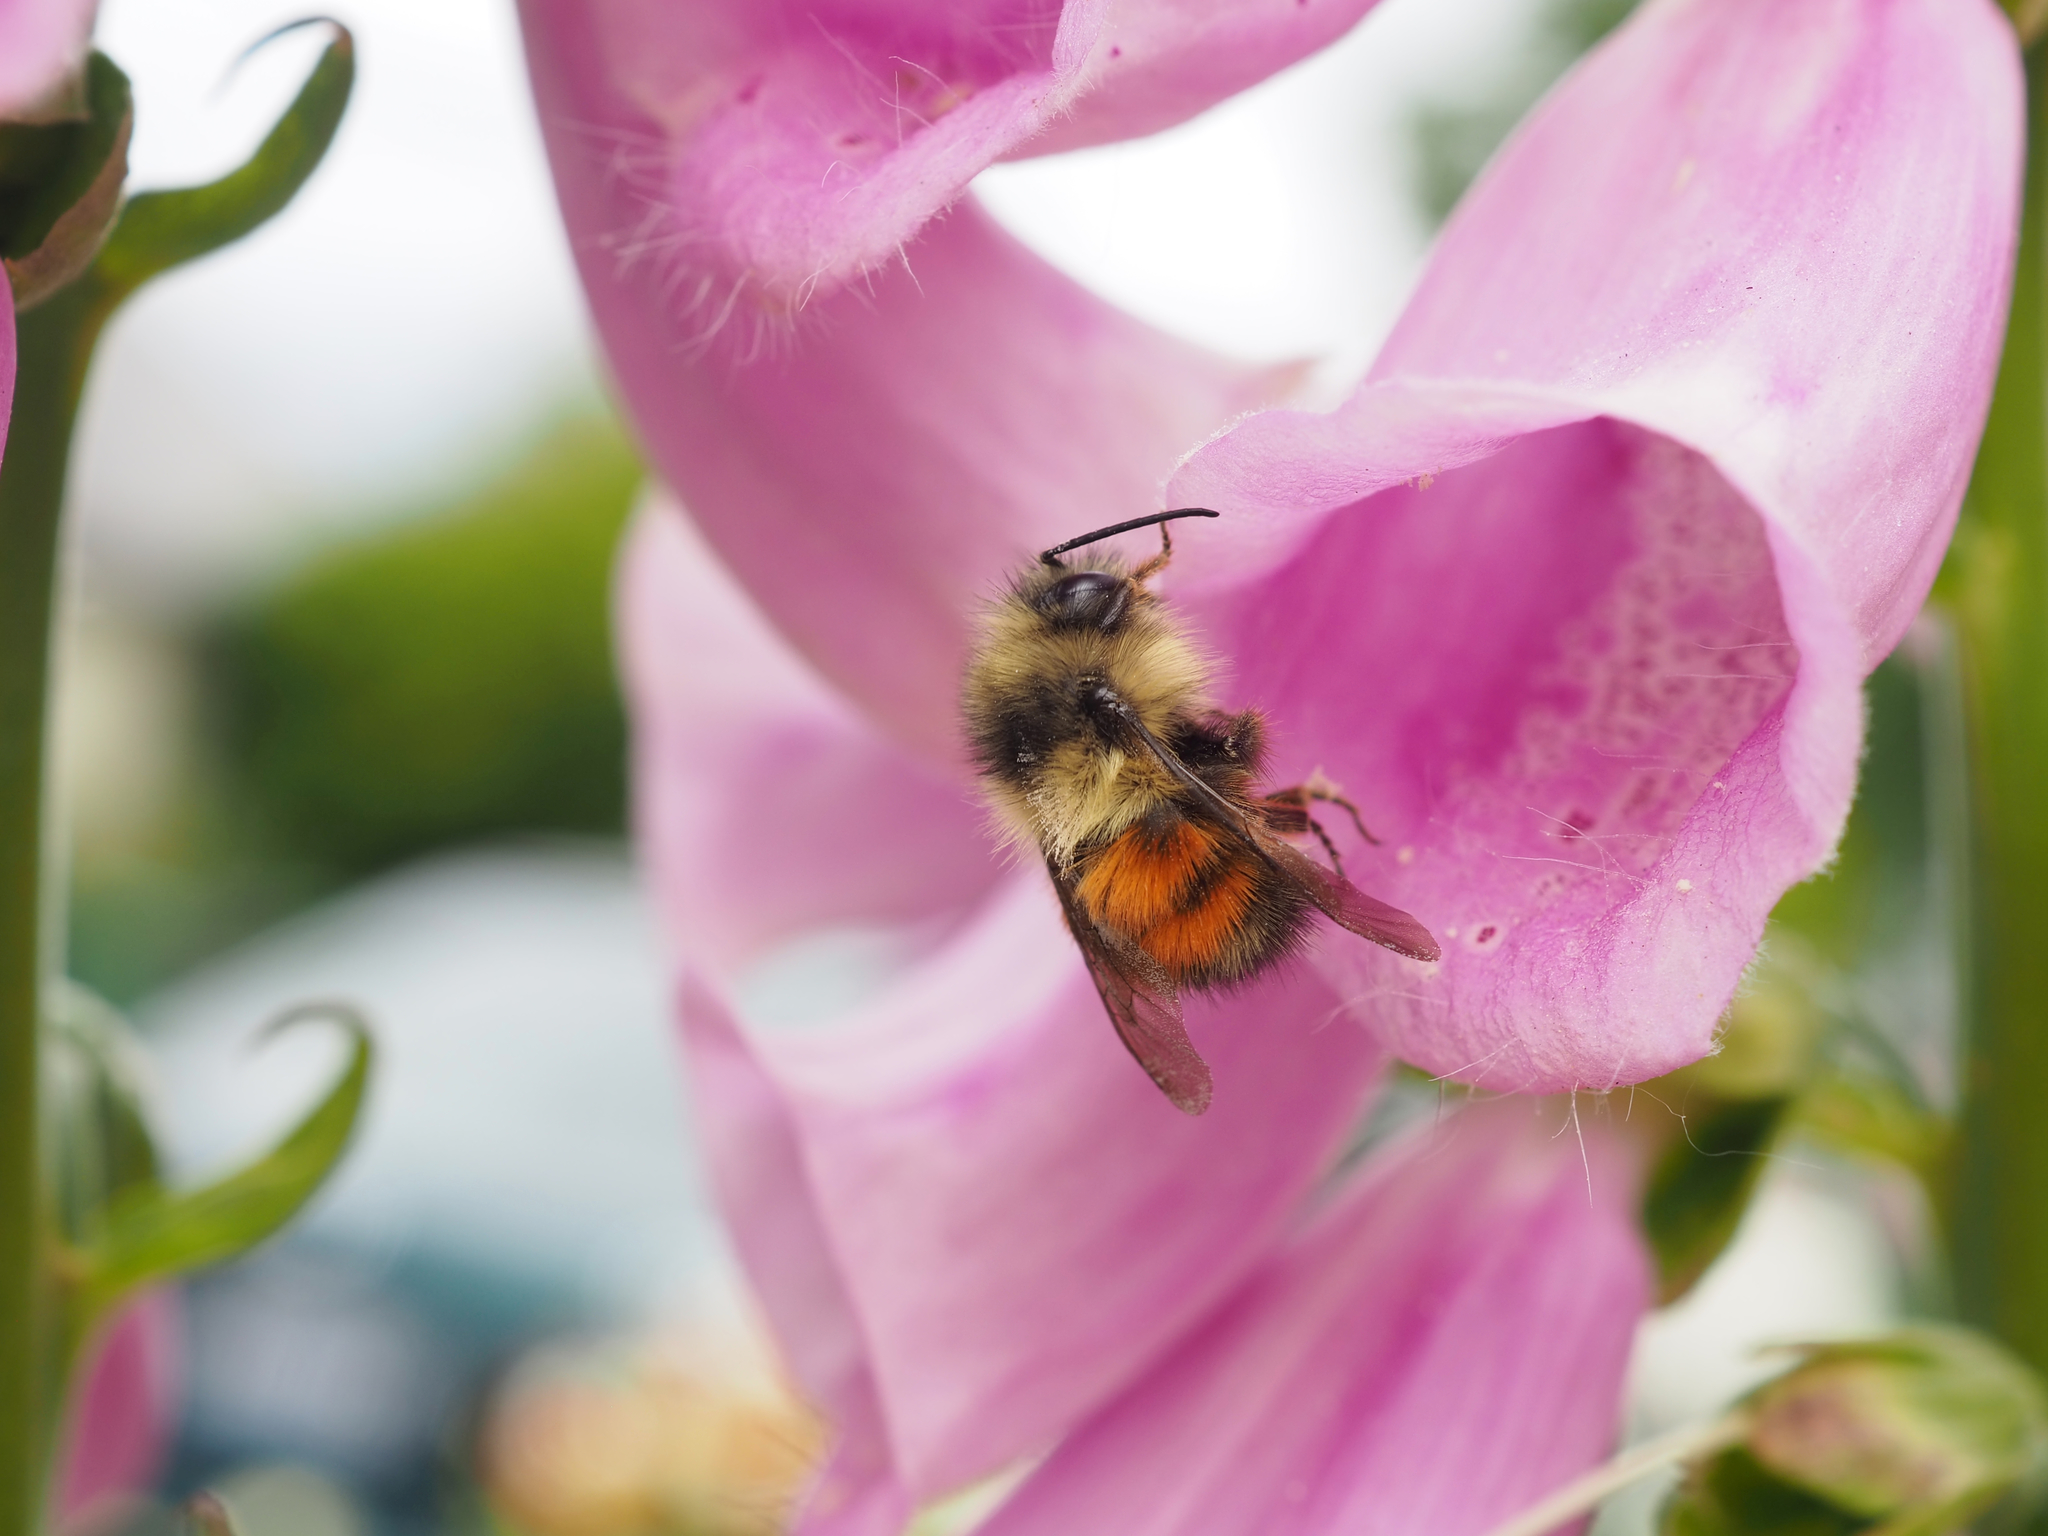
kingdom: Animalia
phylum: Arthropoda
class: Insecta
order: Hymenoptera
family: Apidae
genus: Bombus
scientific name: Bombus melanopygus
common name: Black tail bumble bee
